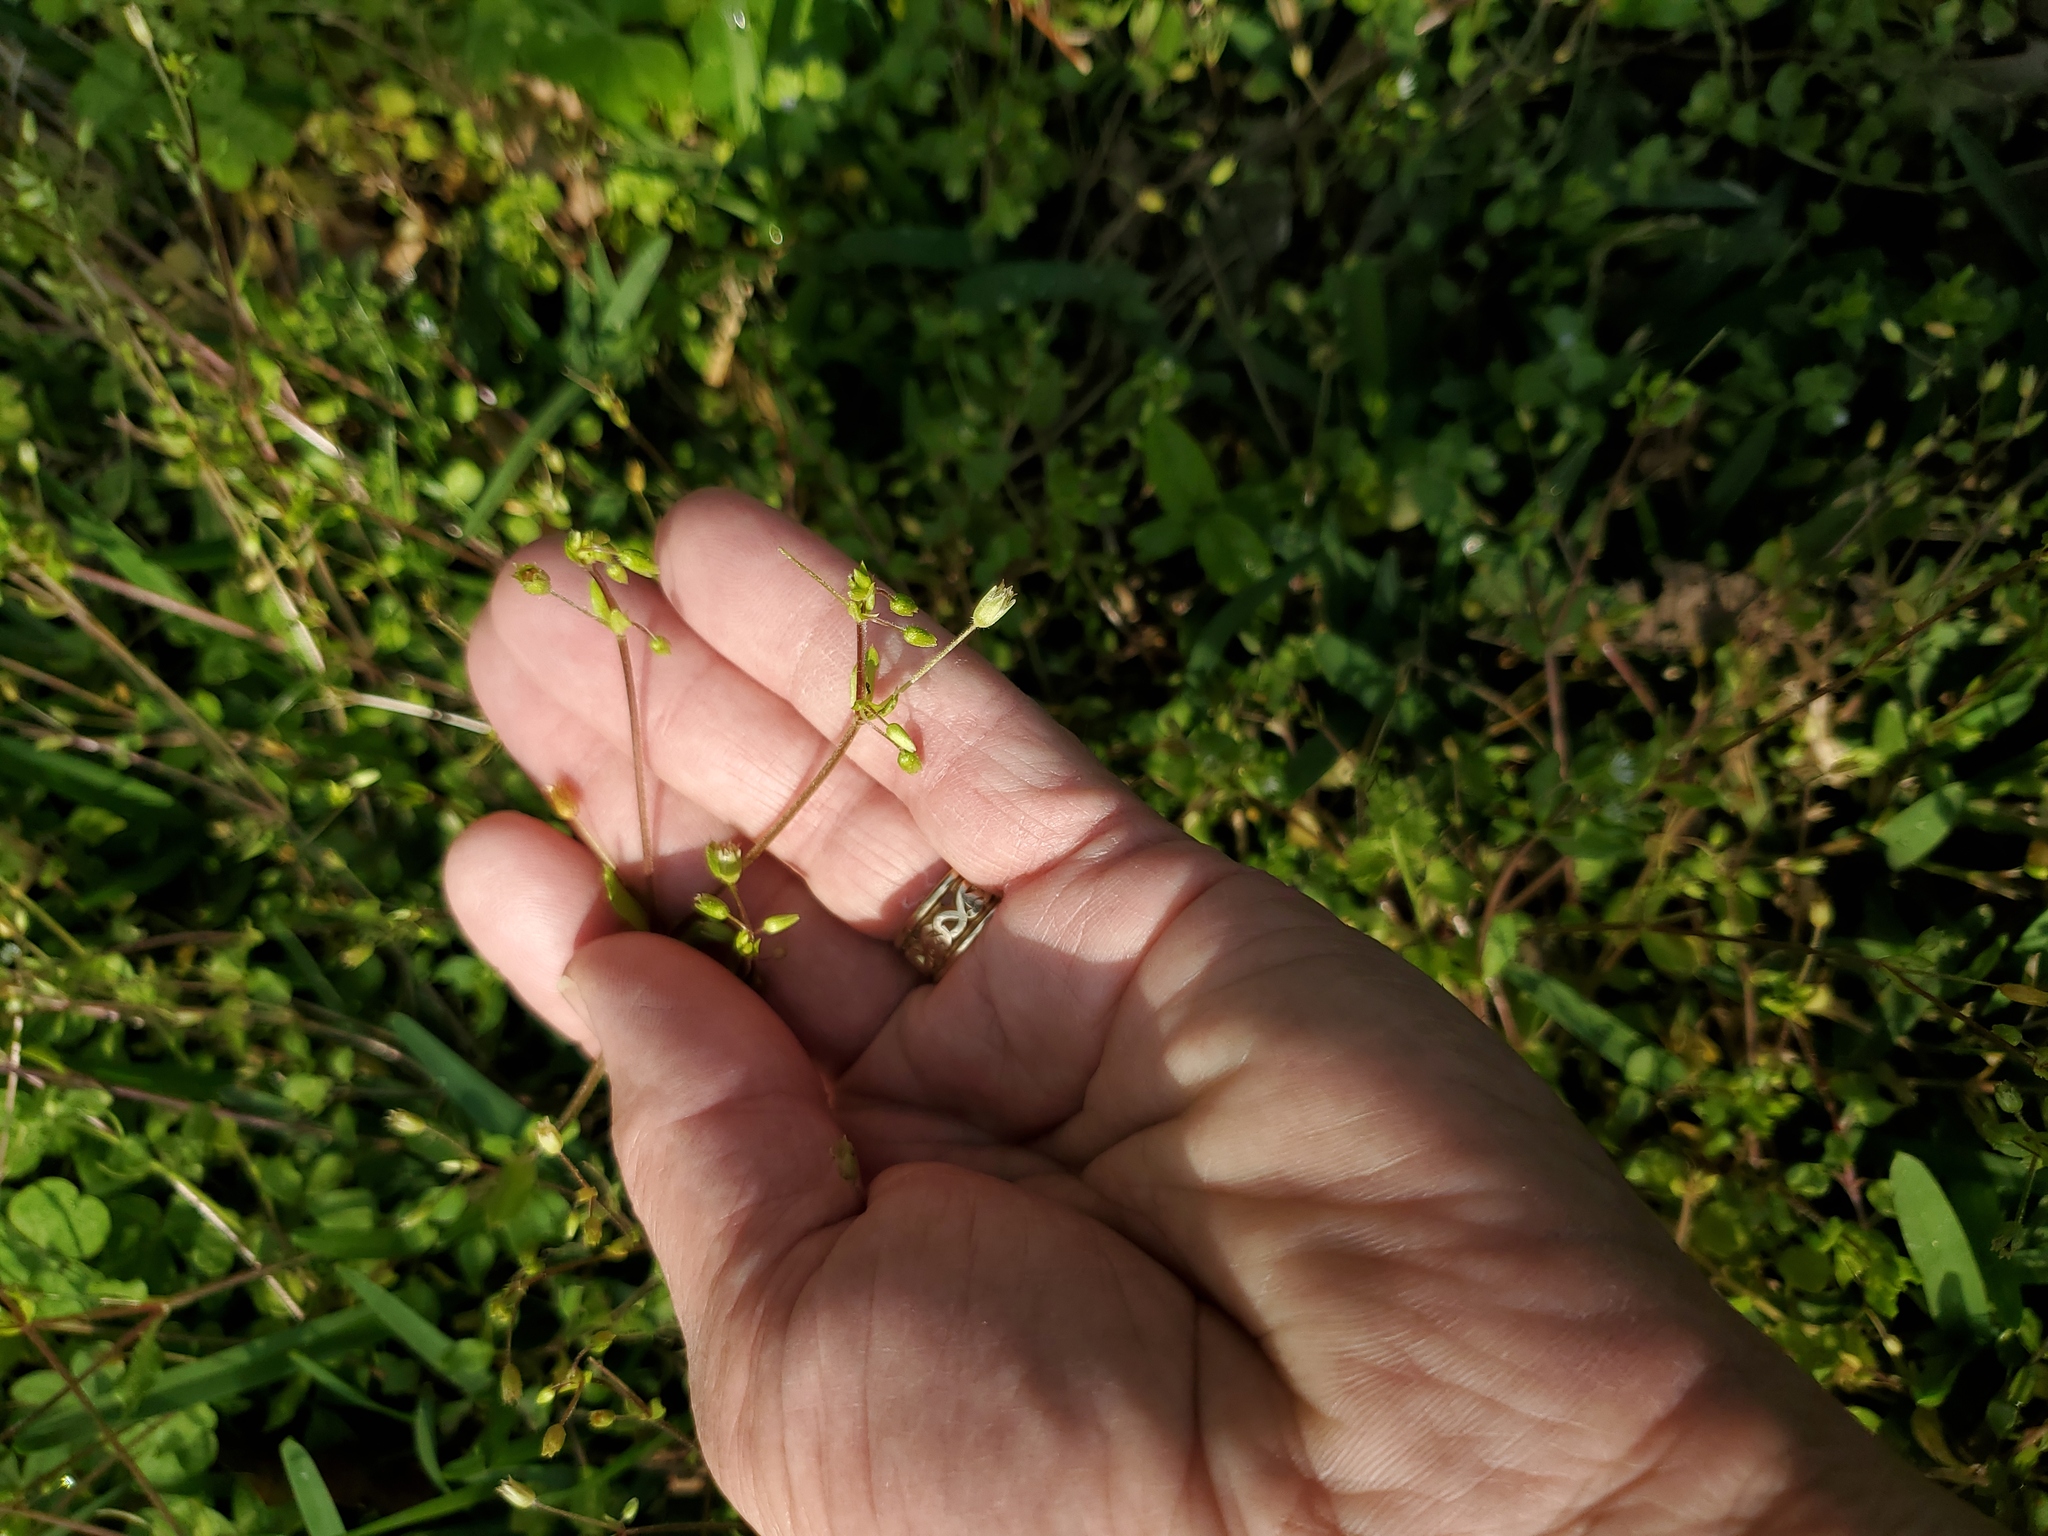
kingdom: Plantae
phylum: Tracheophyta
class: Magnoliopsida
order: Caryophyllales
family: Caryophyllaceae
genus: Stellaria
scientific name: Stellaria media
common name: Common chickweed
